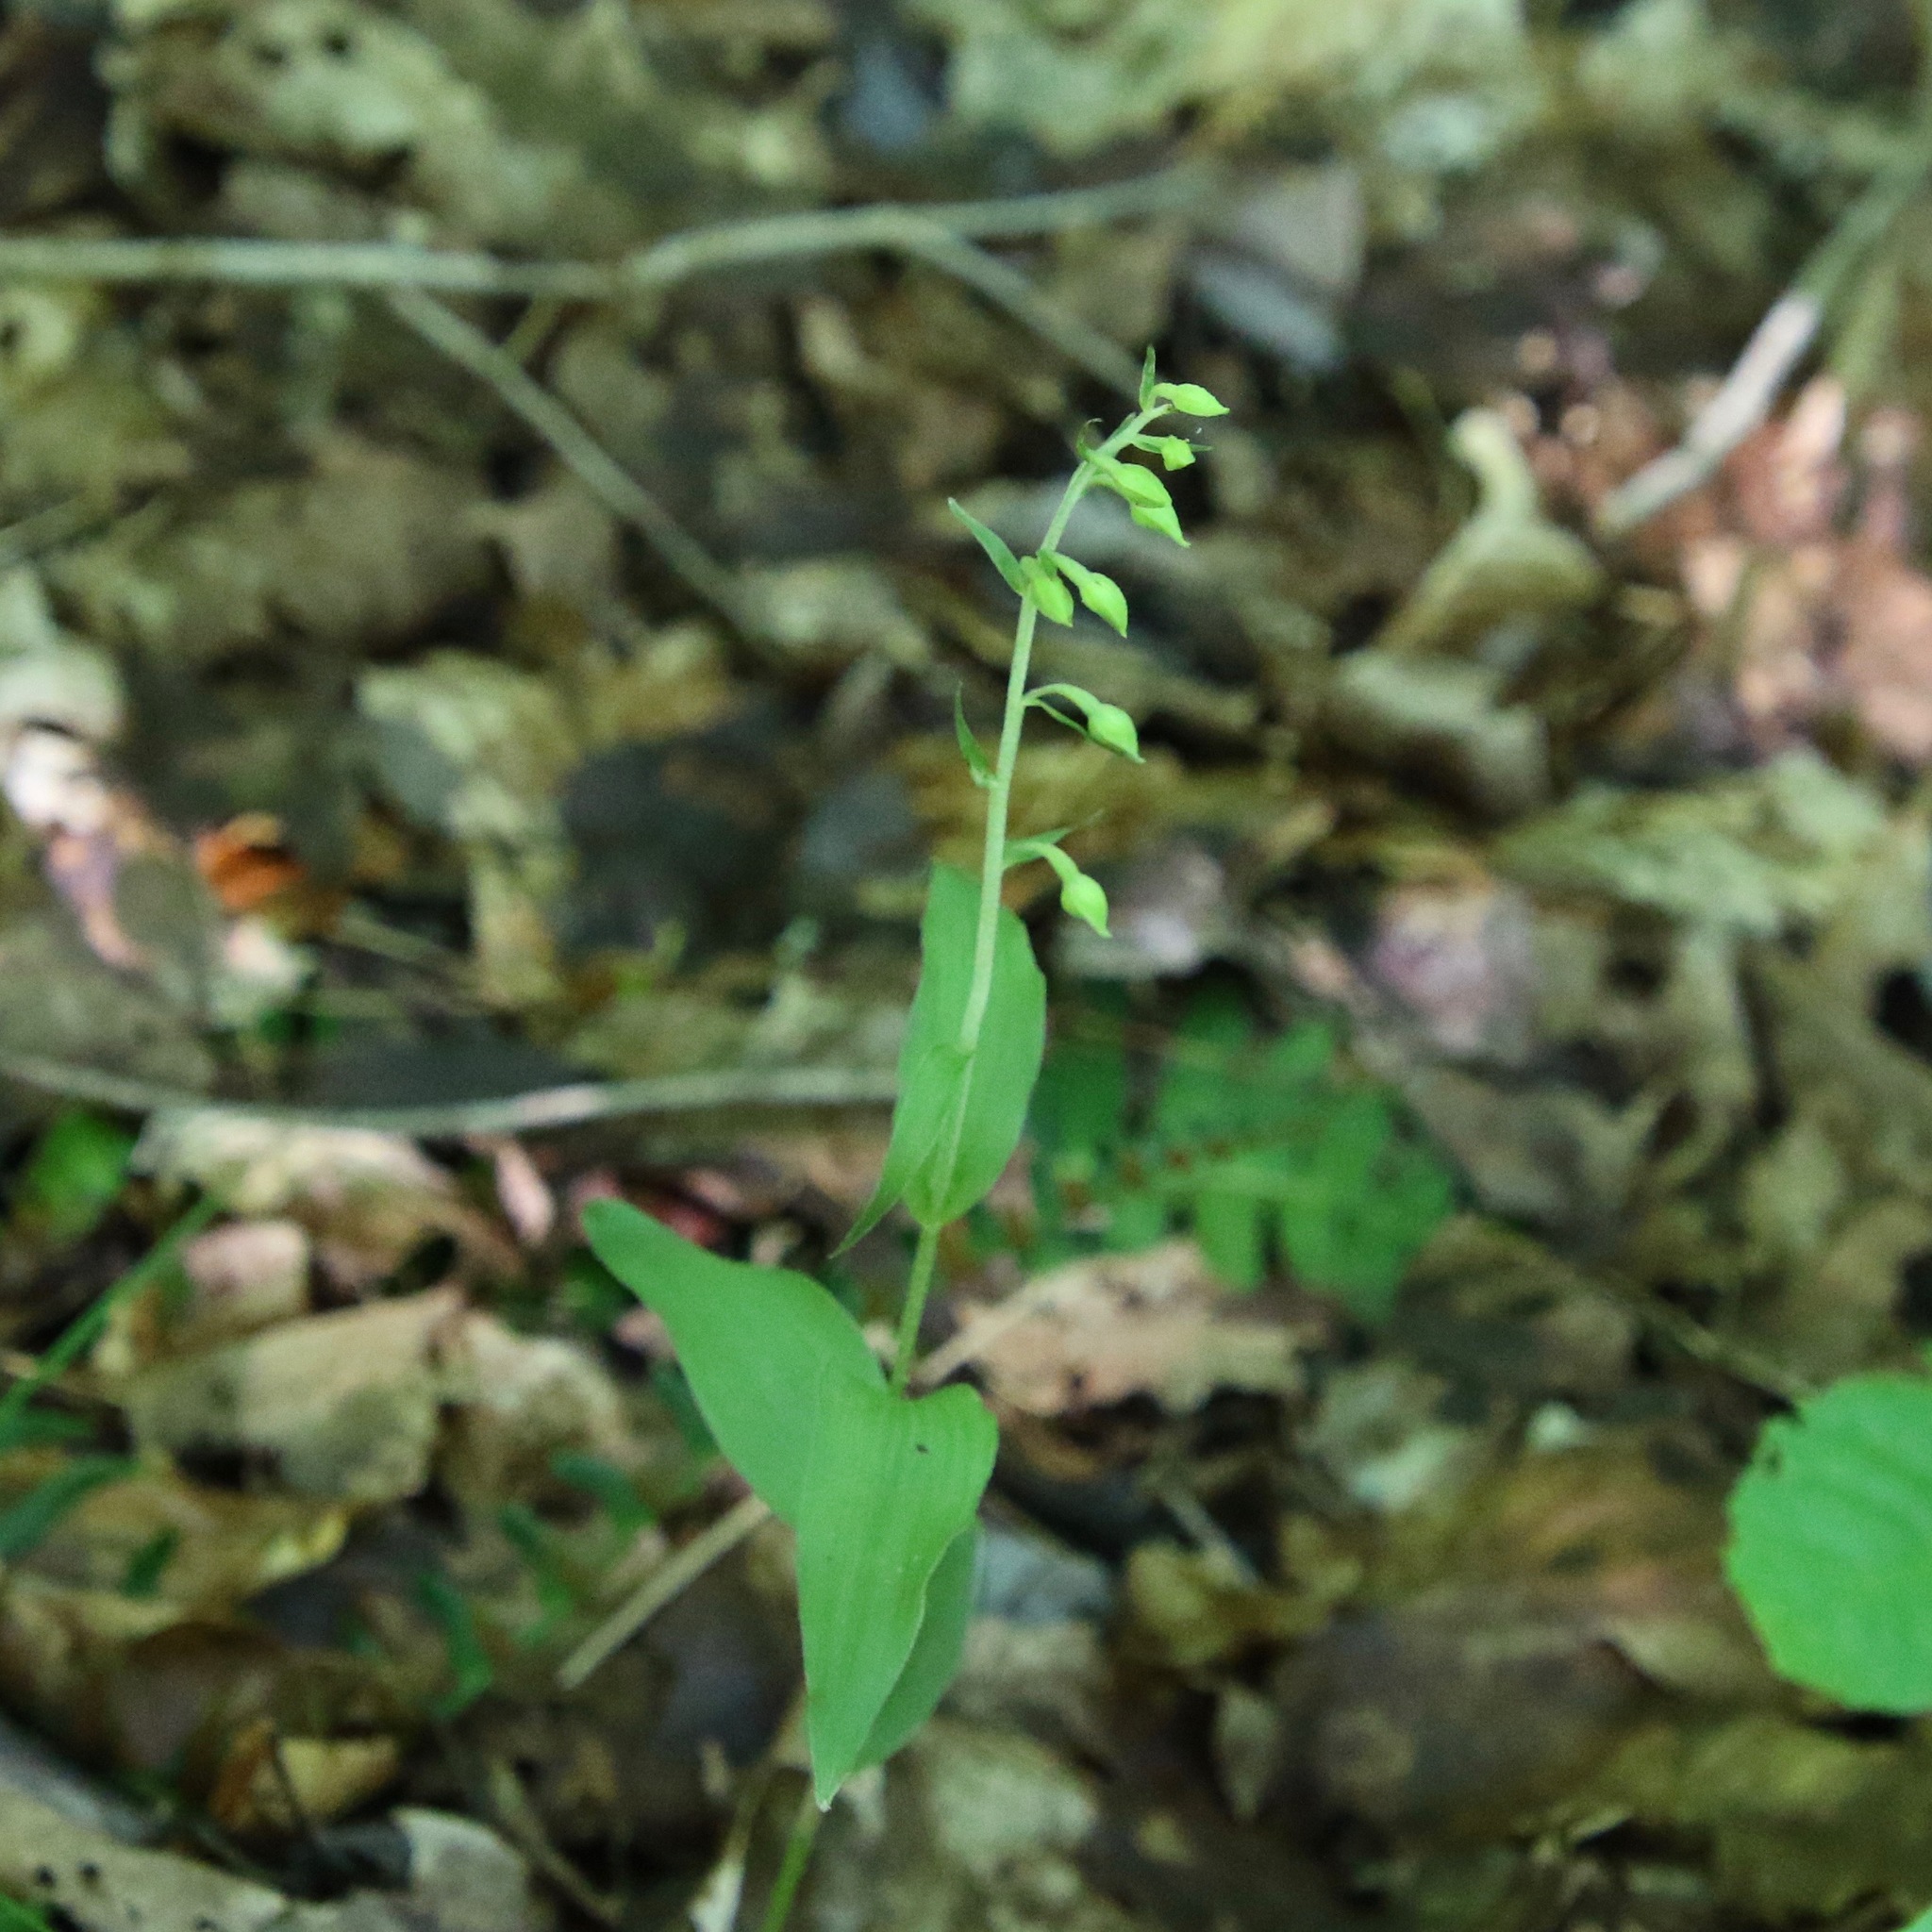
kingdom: Plantae
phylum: Tracheophyta
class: Liliopsida
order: Asparagales
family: Orchidaceae
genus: Epipactis
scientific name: Epipactis helleborine
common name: Broad-leaved helleborine
